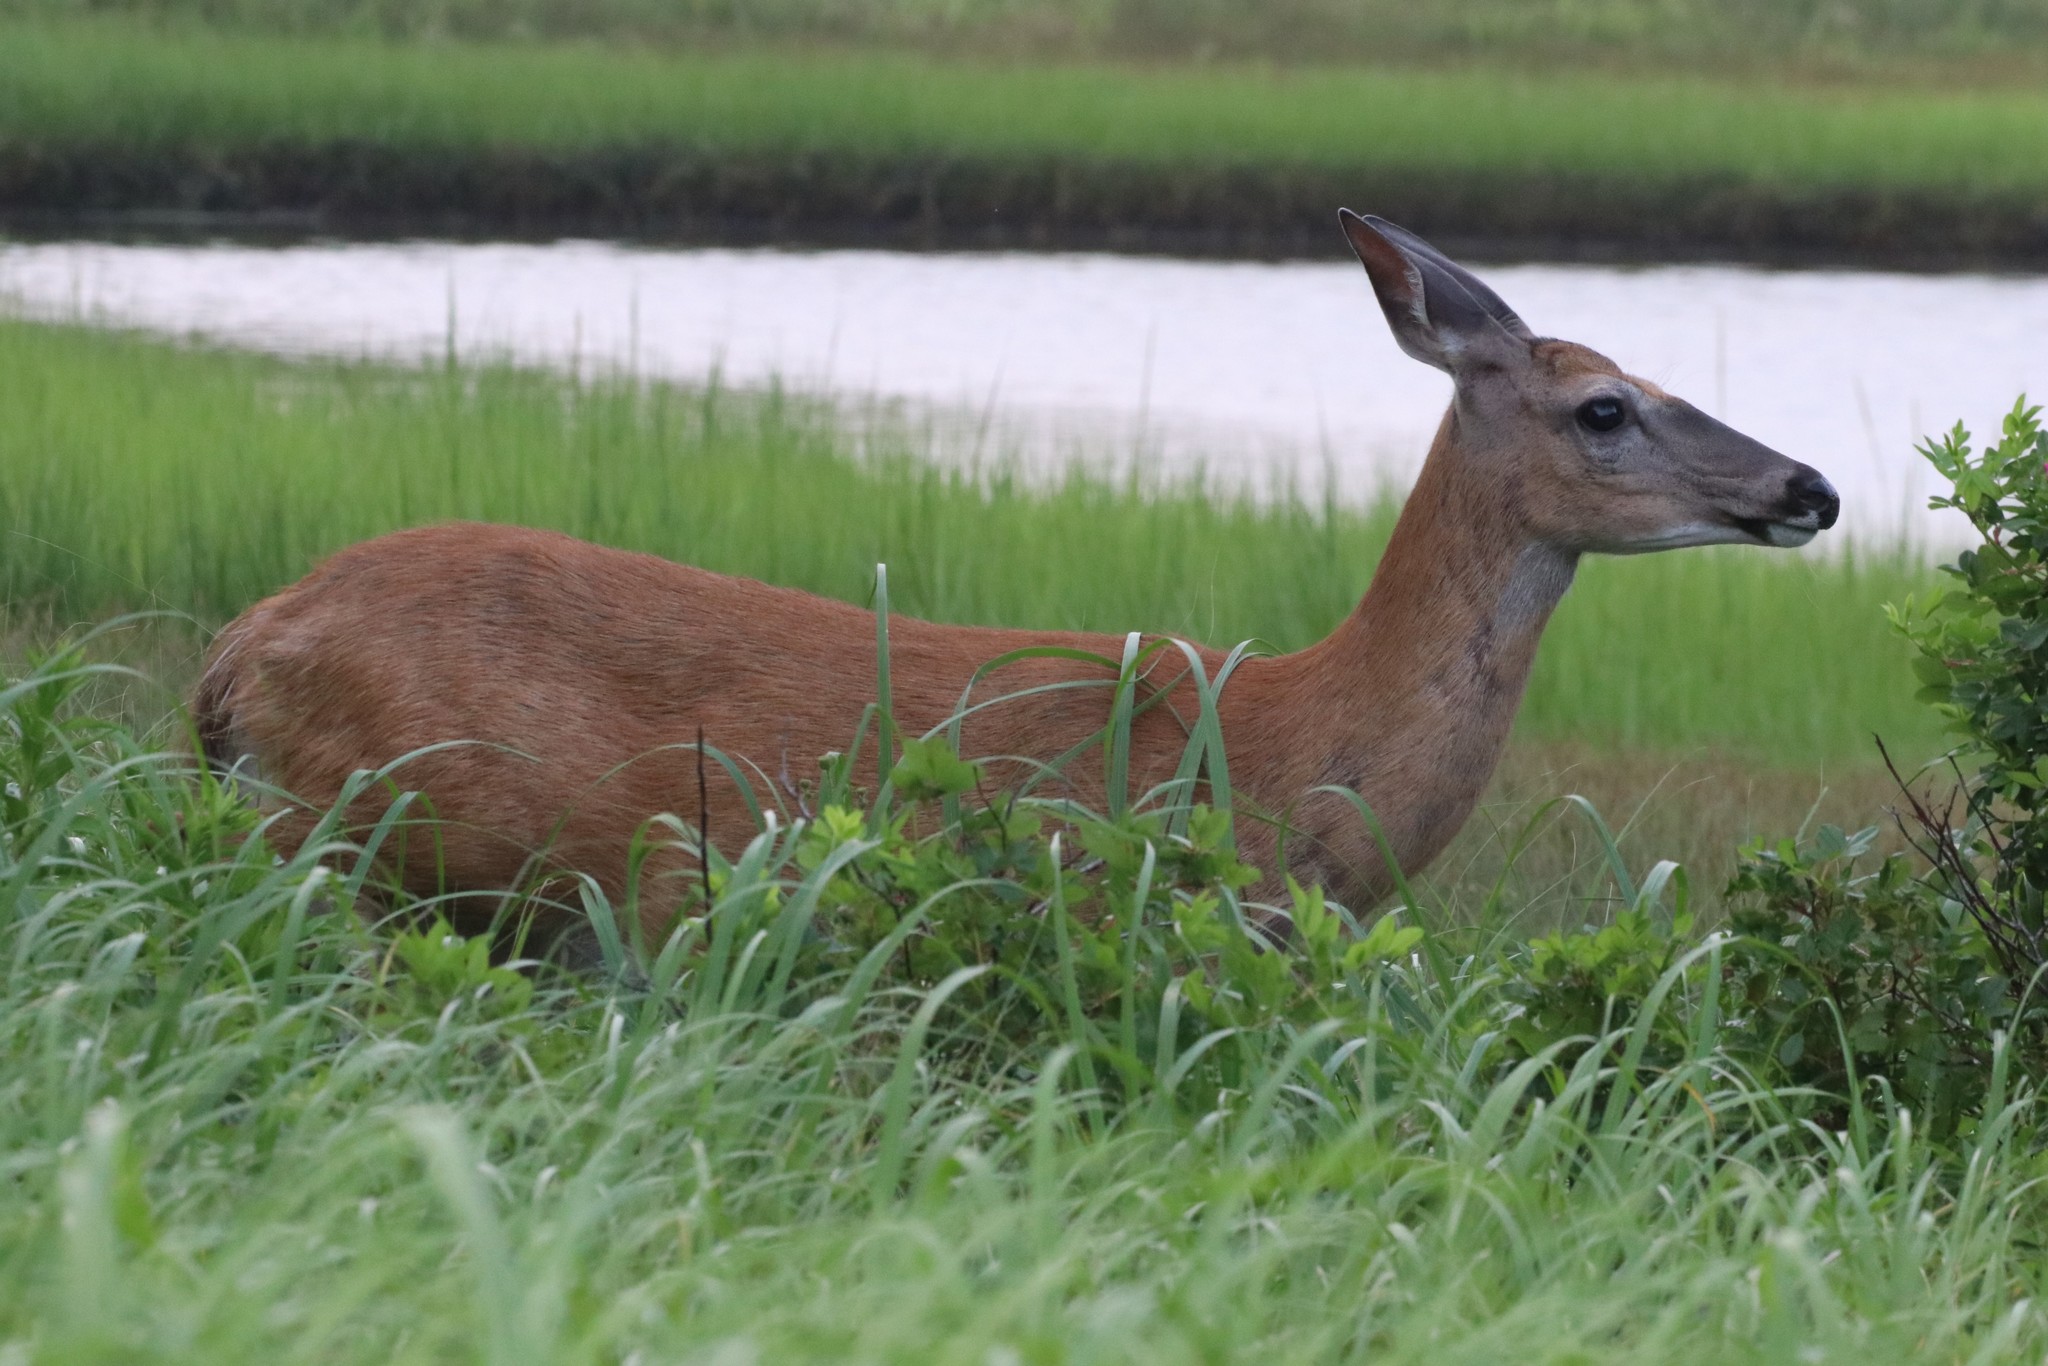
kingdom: Animalia
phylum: Chordata
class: Mammalia
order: Artiodactyla
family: Cervidae
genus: Odocoileus
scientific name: Odocoileus virginianus
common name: White-tailed deer
